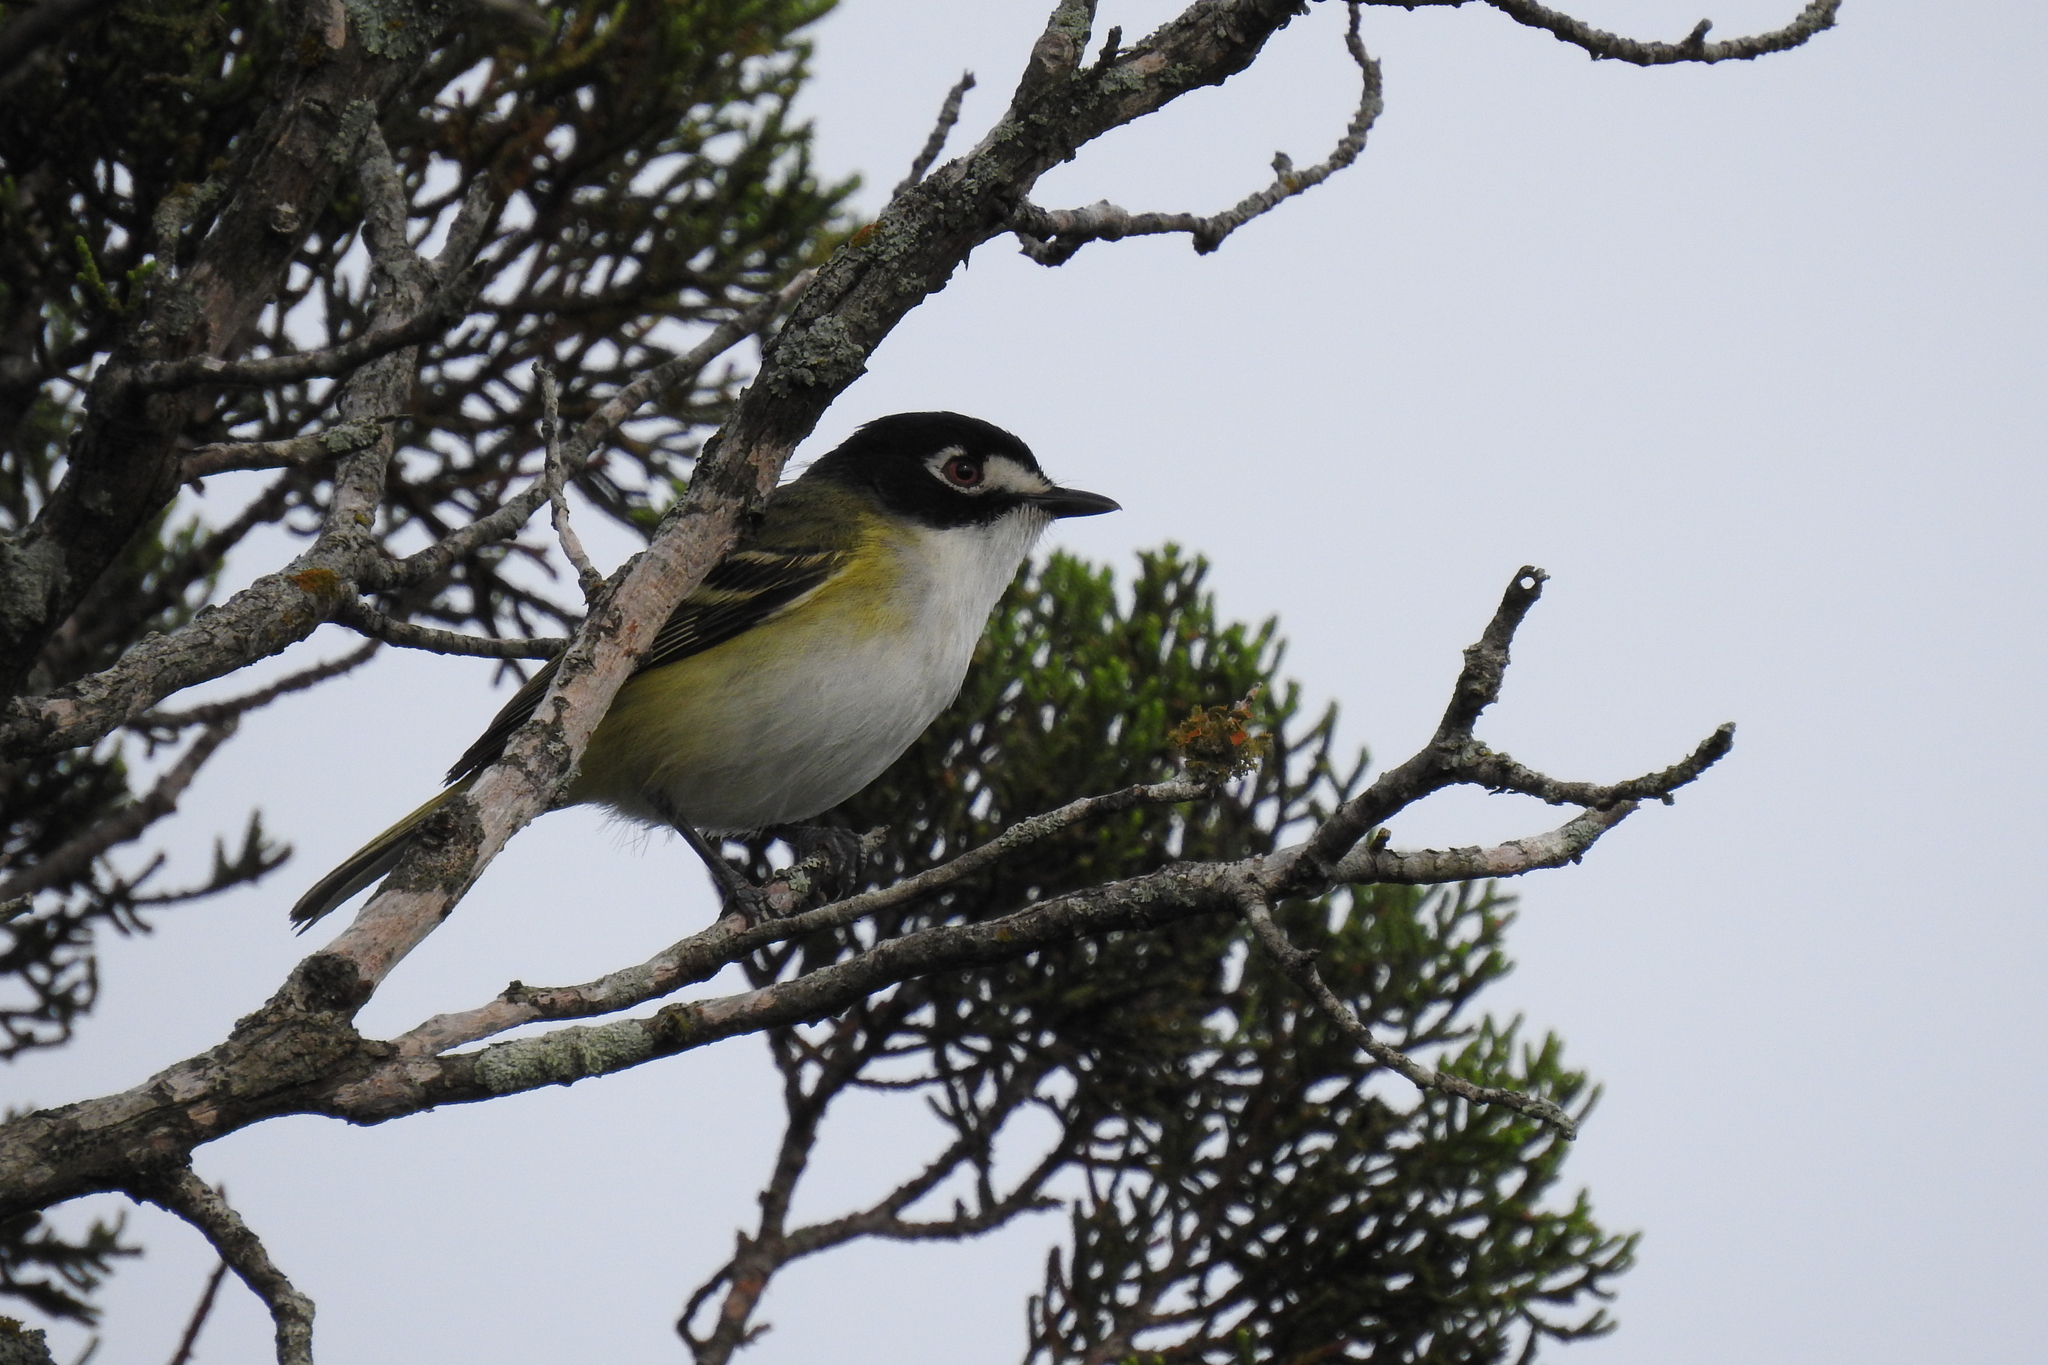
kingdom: Animalia
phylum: Chordata
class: Aves
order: Passeriformes
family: Vireonidae
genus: Vireo
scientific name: Vireo atricapilla
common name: Black-capped vireo
